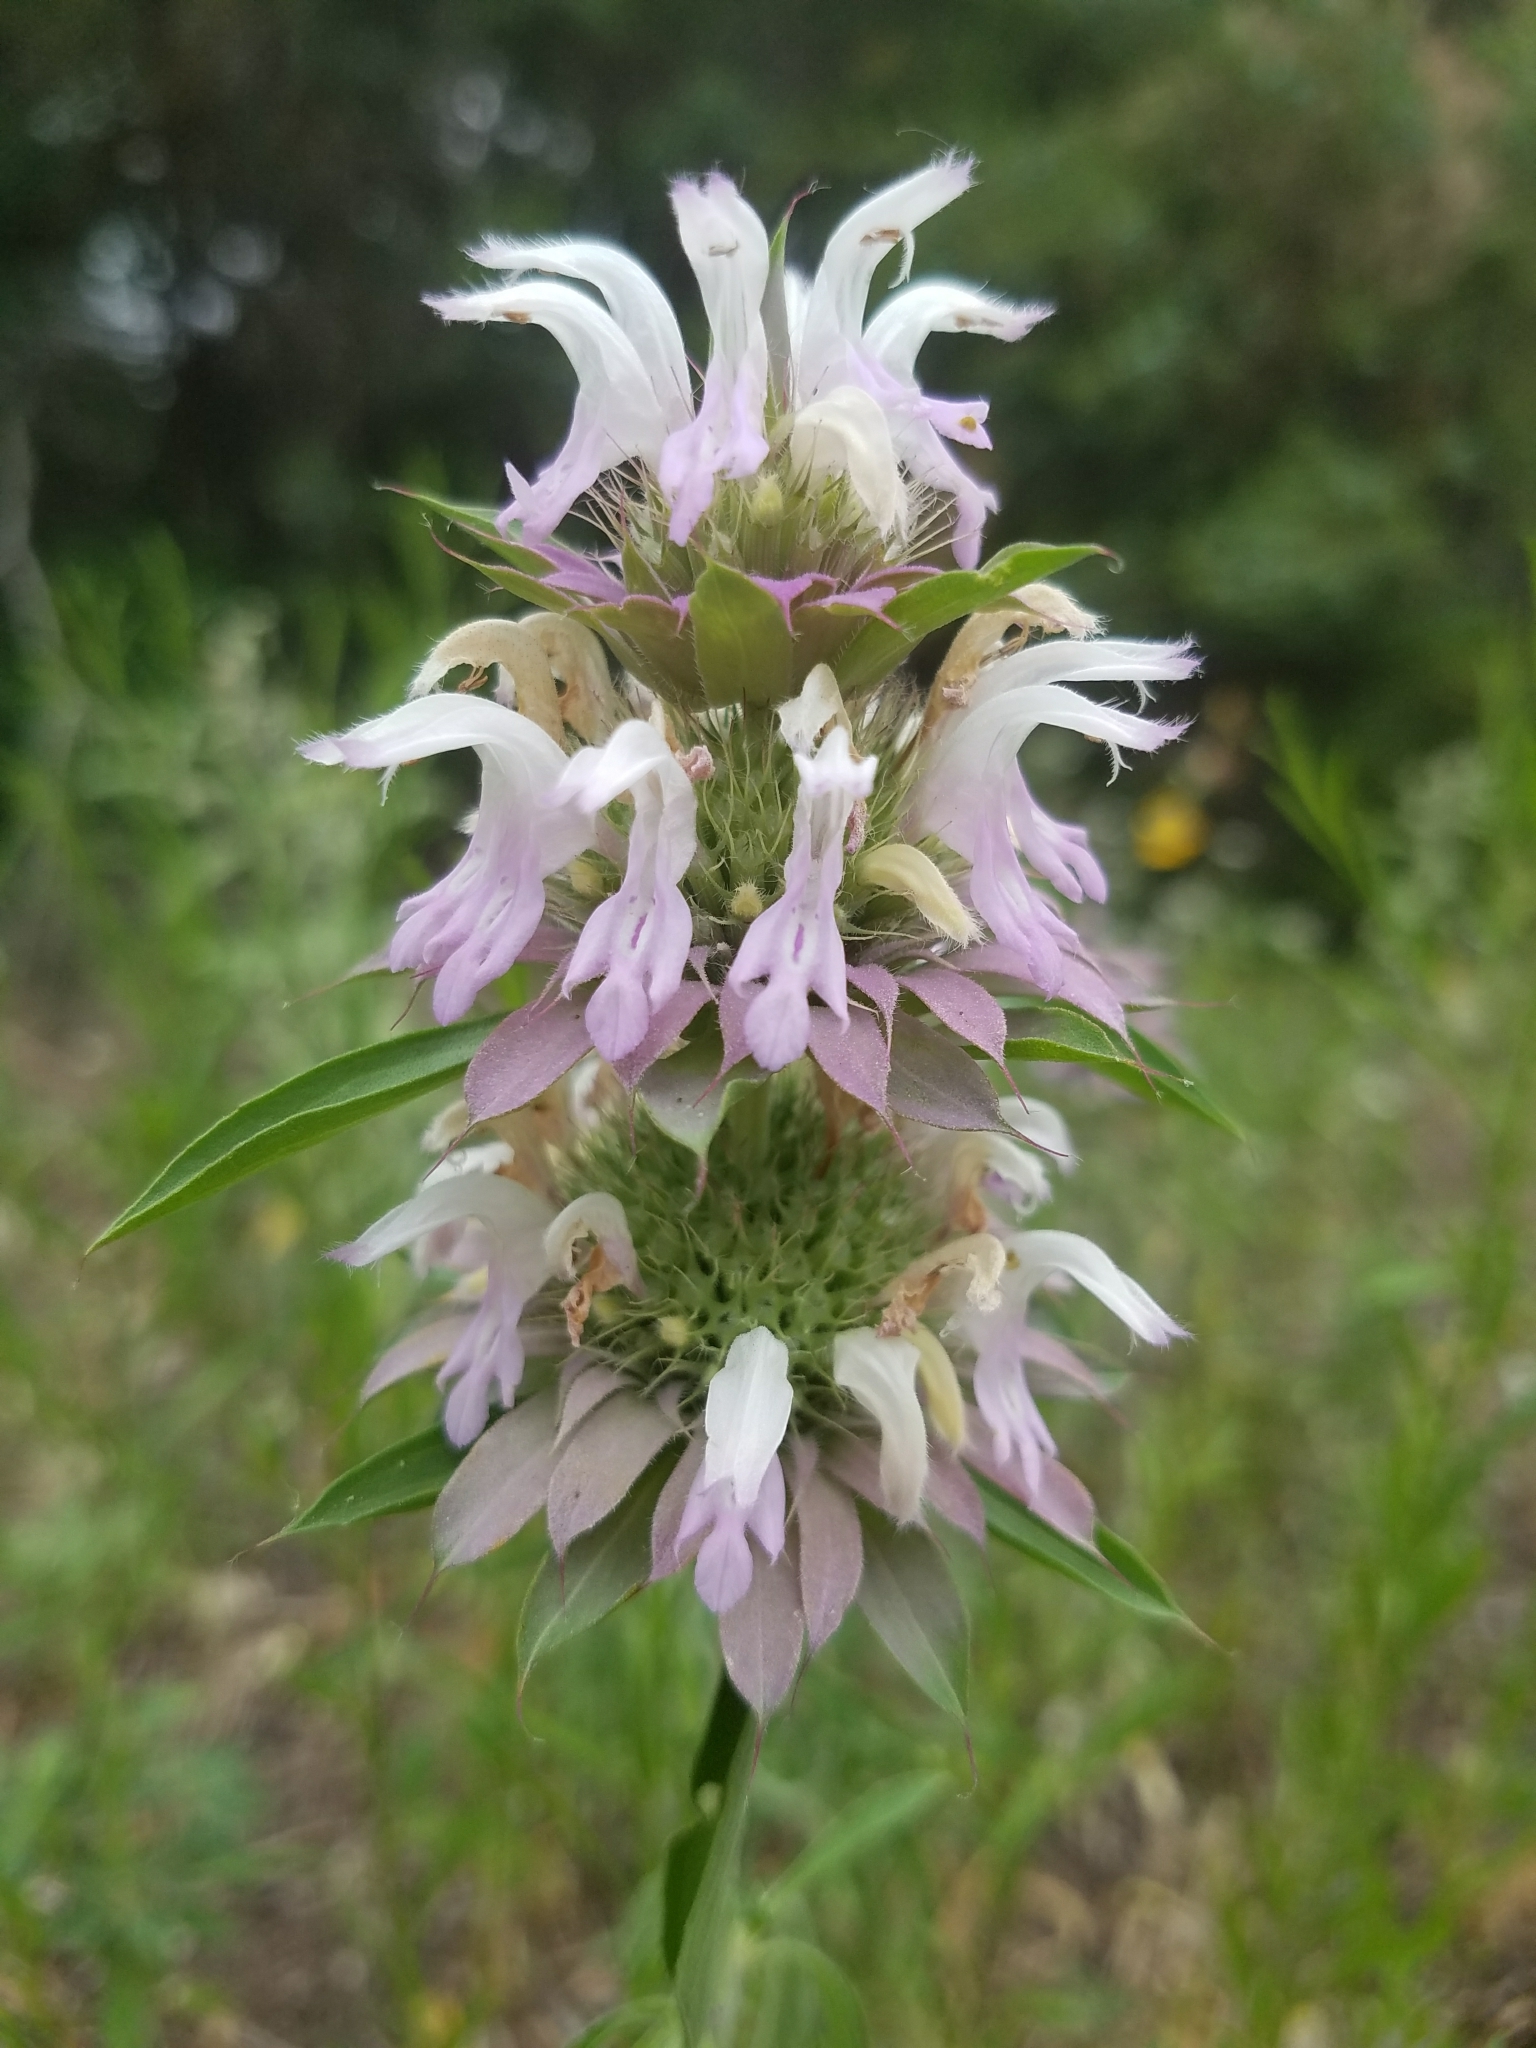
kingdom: Plantae
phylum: Tracheophyta
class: Magnoliopsida
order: Lamiales
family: Lamiaceae
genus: Monarda
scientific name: Monarda citriodora
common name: Lemon beebalm
